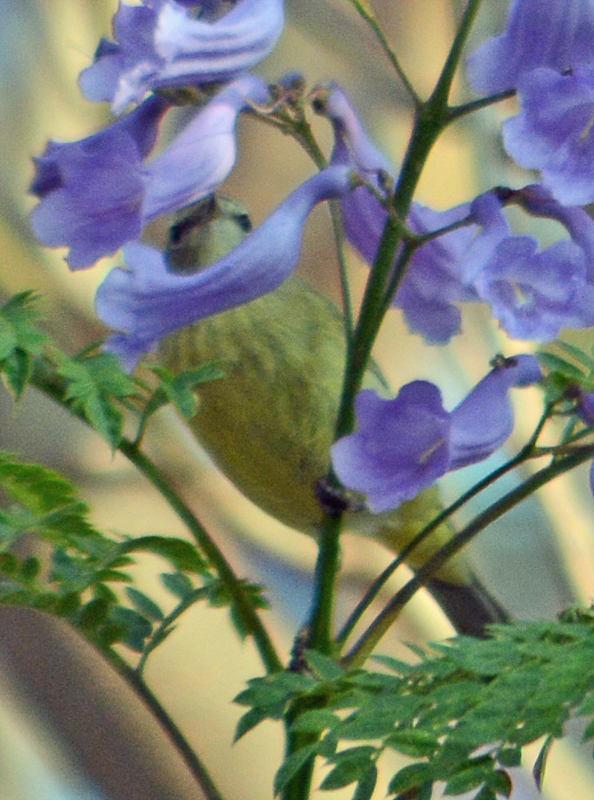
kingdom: Animalia
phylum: Chordata
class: Aves
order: Passeriformes
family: Parulidae
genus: Leiothlypis
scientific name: Leiothlypis celata
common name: Orange-crowned warbler
